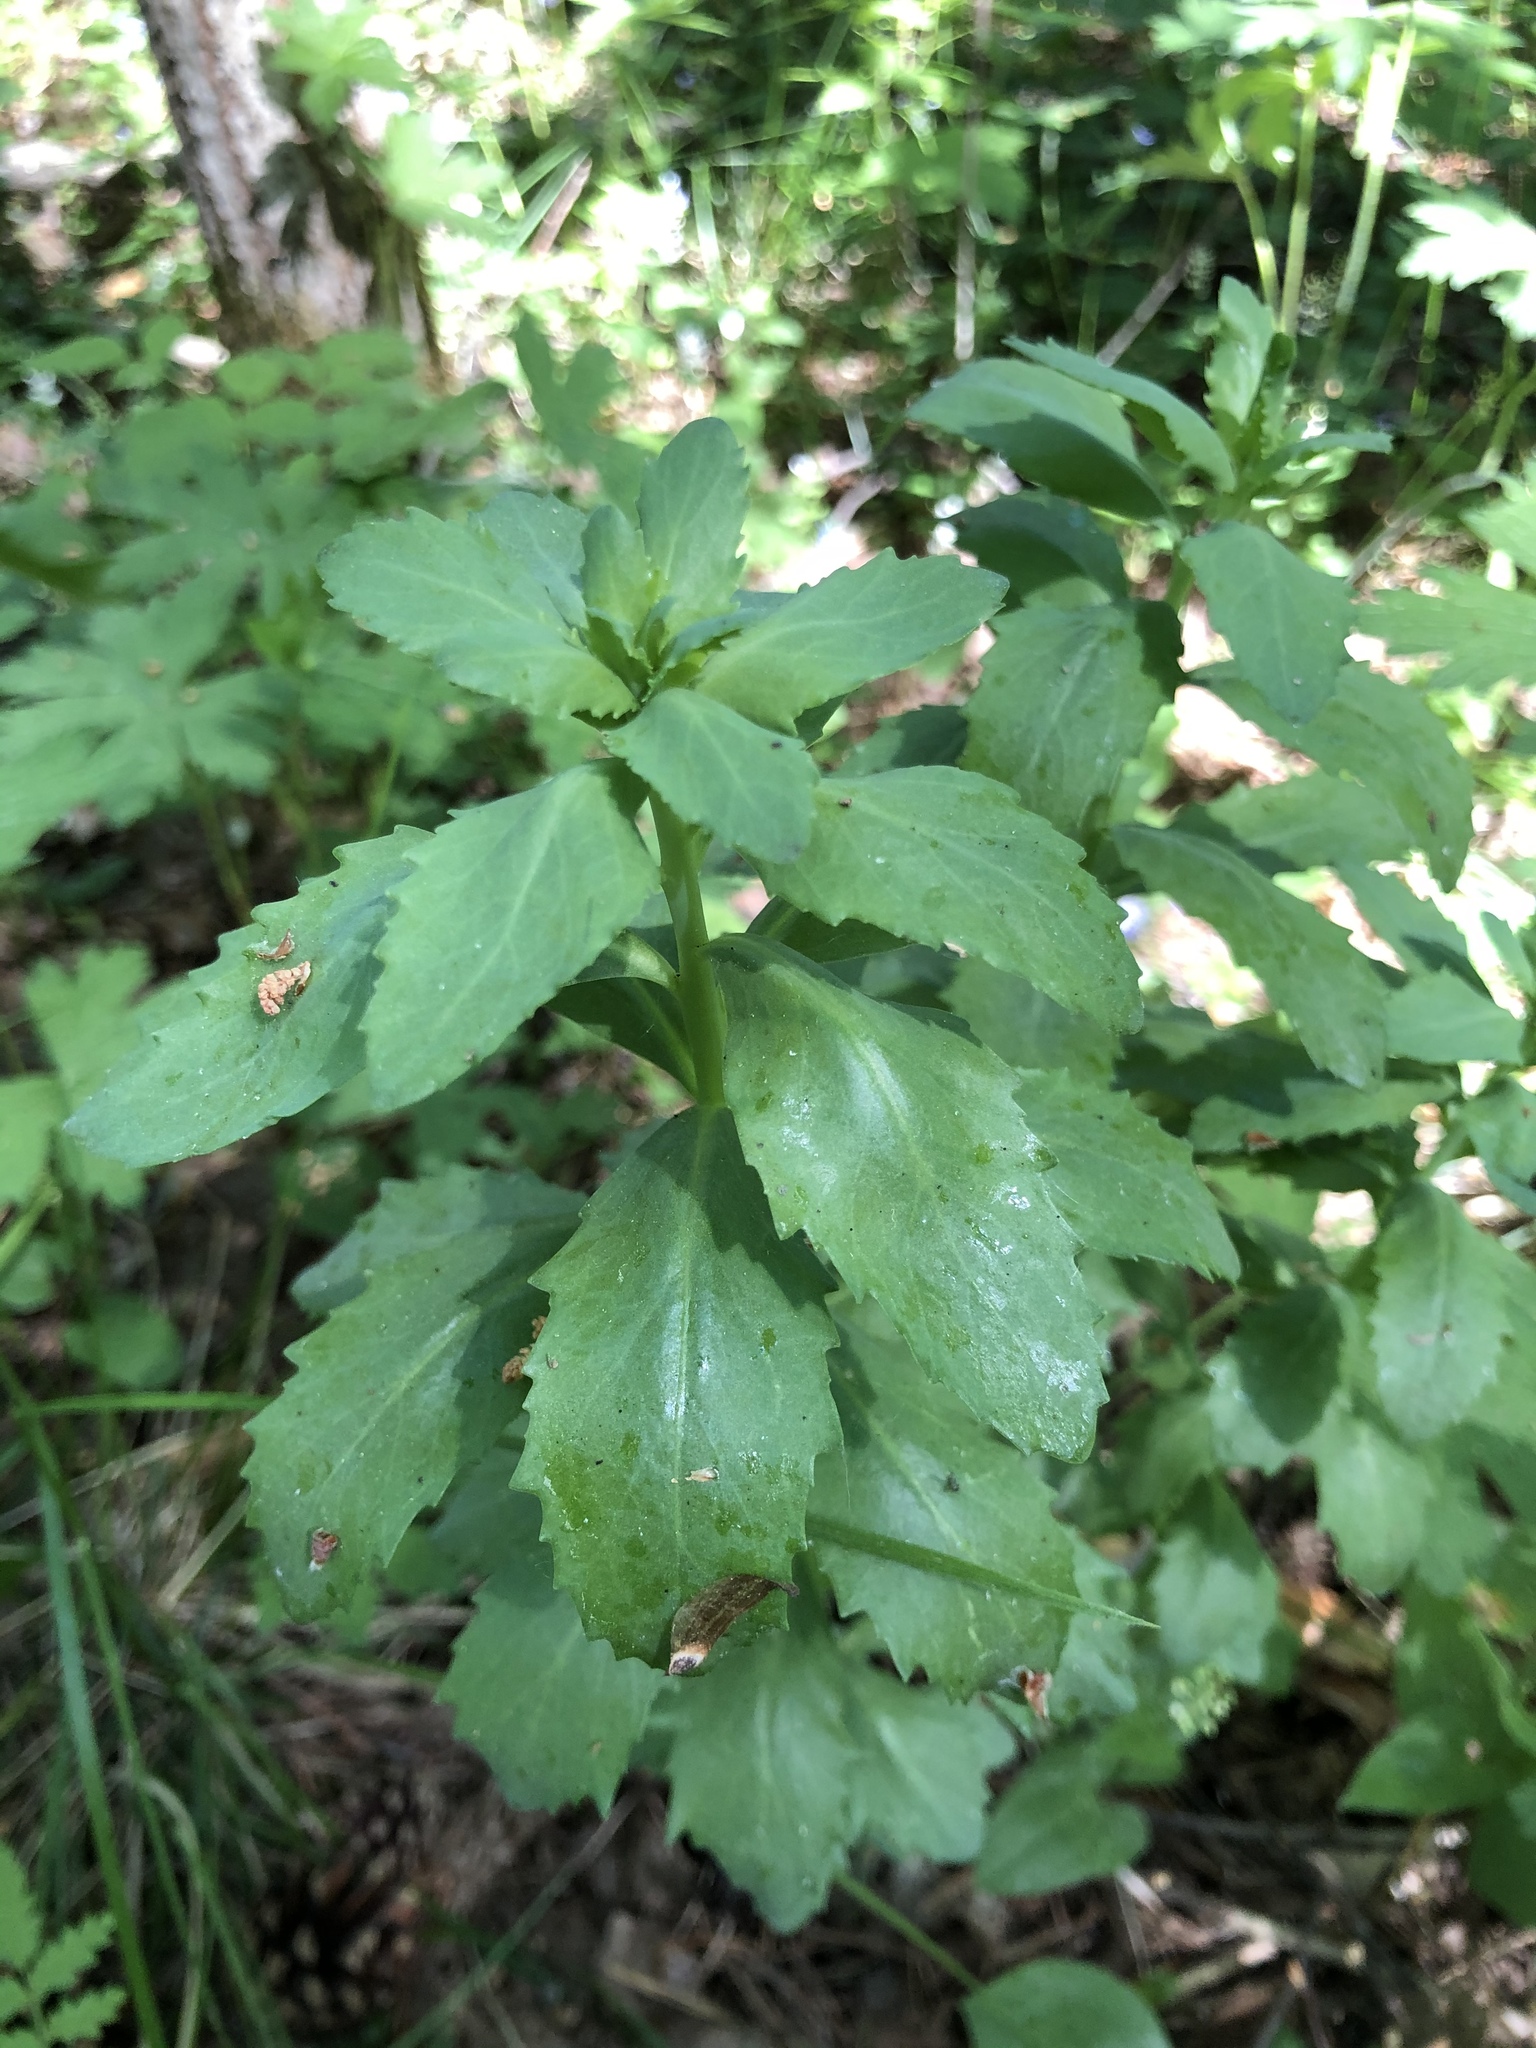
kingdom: Plantae
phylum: Tracheophyta
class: Magnoliopsida
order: Saxifragales
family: Crassulaceae
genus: Hylotelephium
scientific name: Hylotelephium telephium
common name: Live-forever
